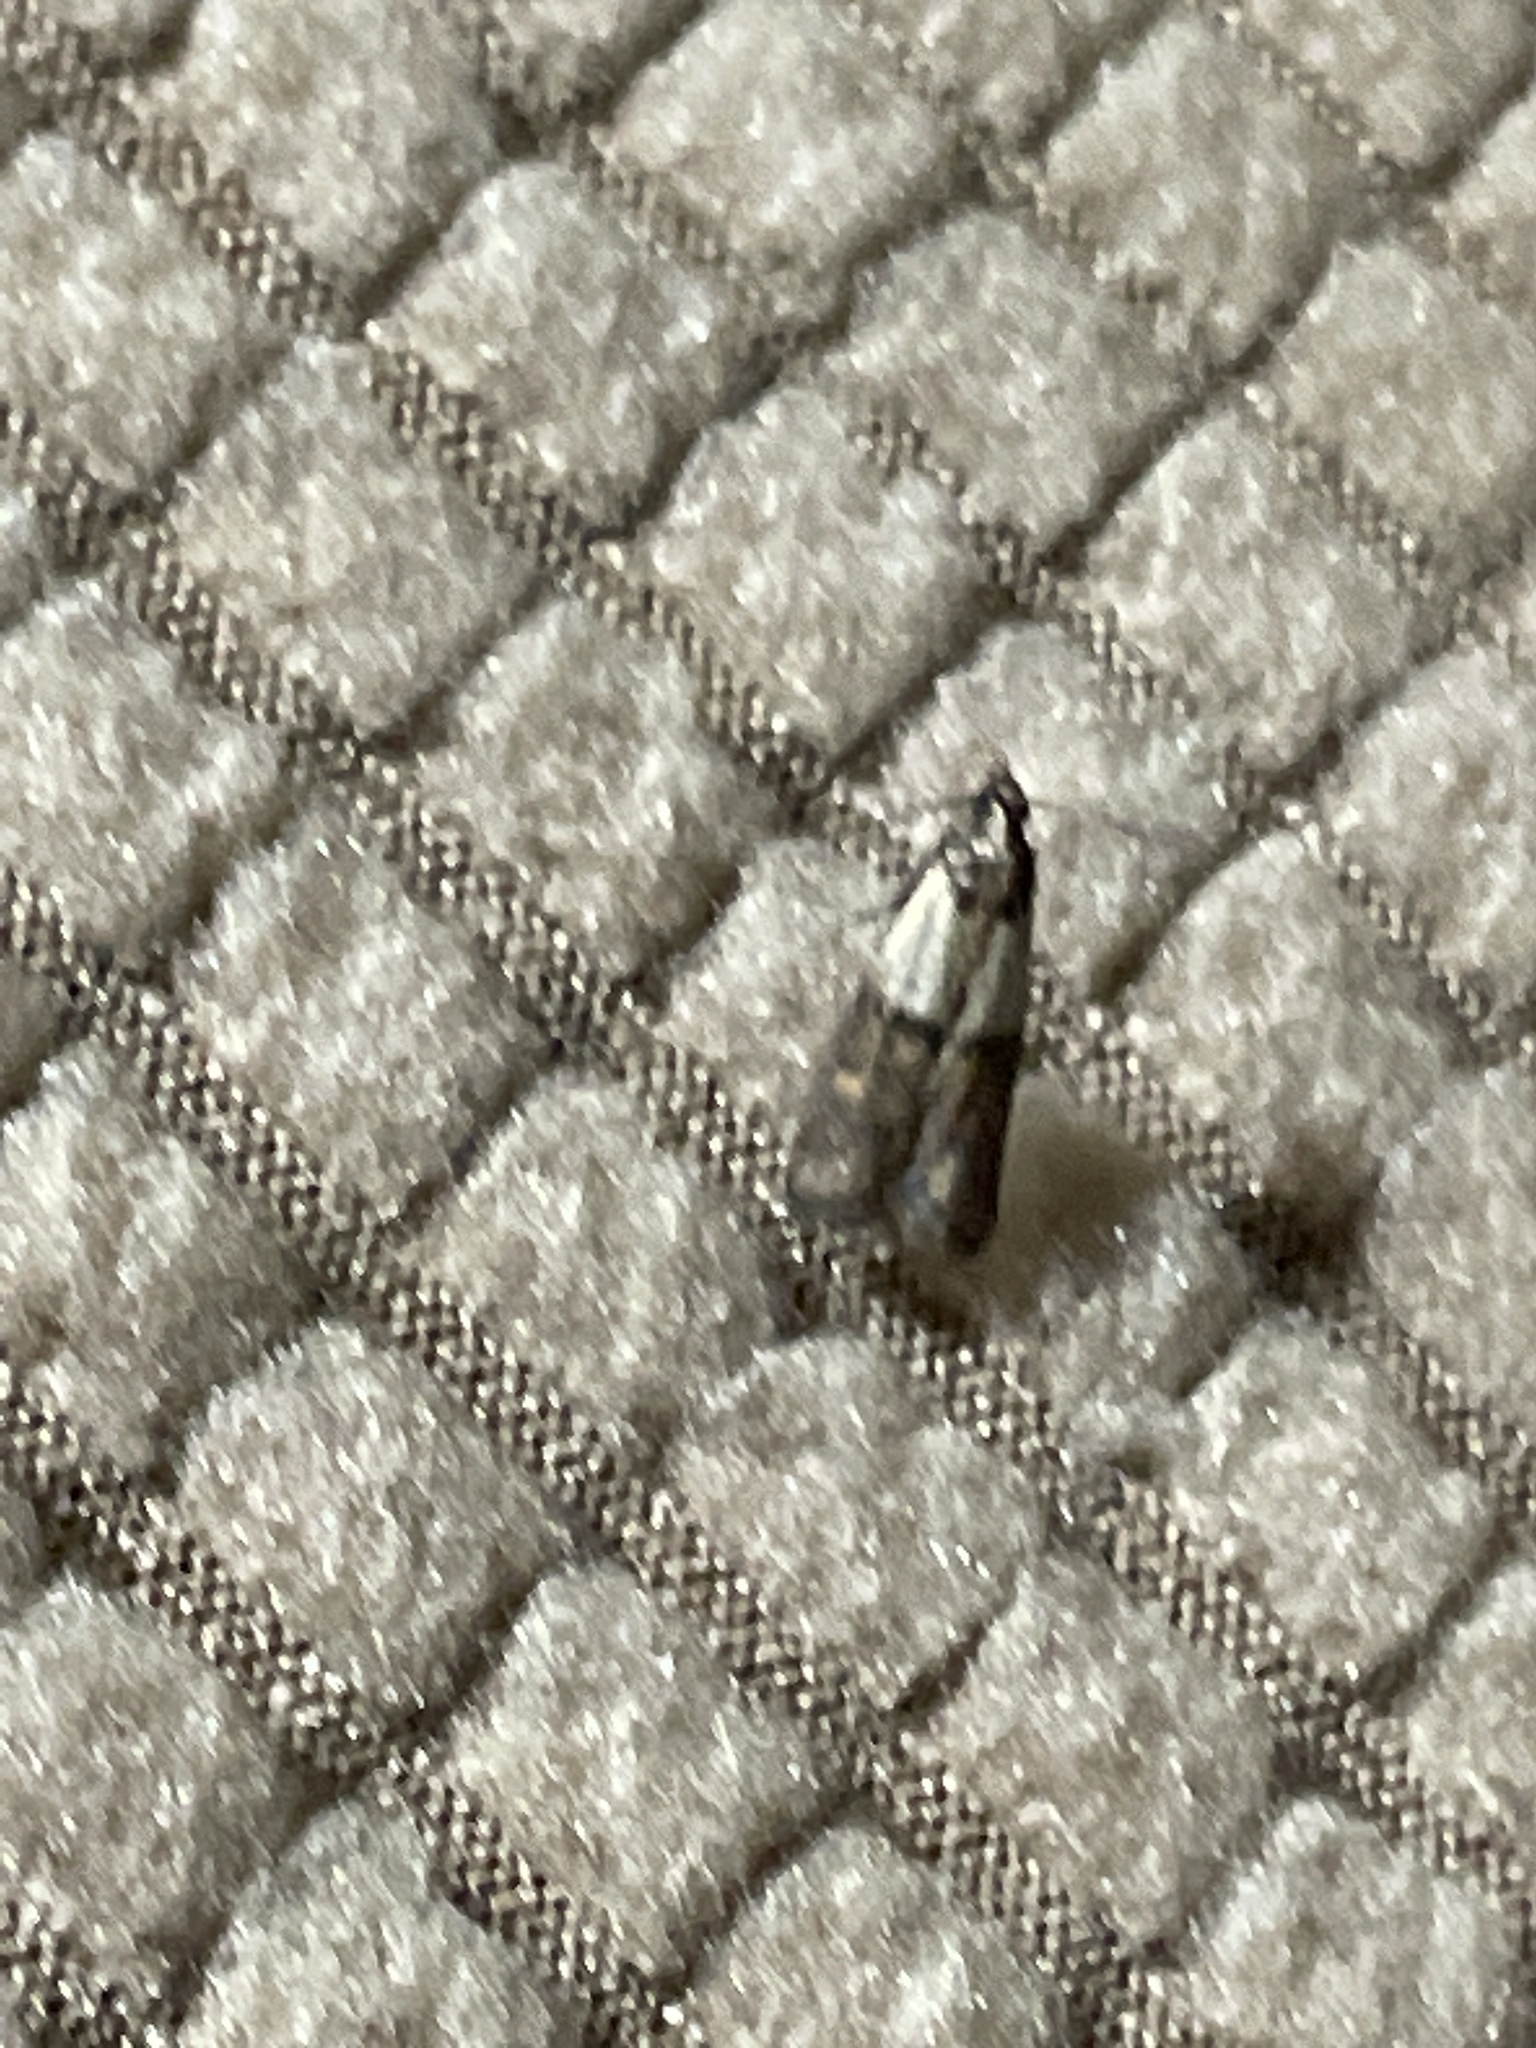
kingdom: Animalia
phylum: Arthropoda
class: Insecta
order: Lepidoptera
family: Pyralidae
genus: Plodia
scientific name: Plodia interpunctella
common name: Indian meal moth
